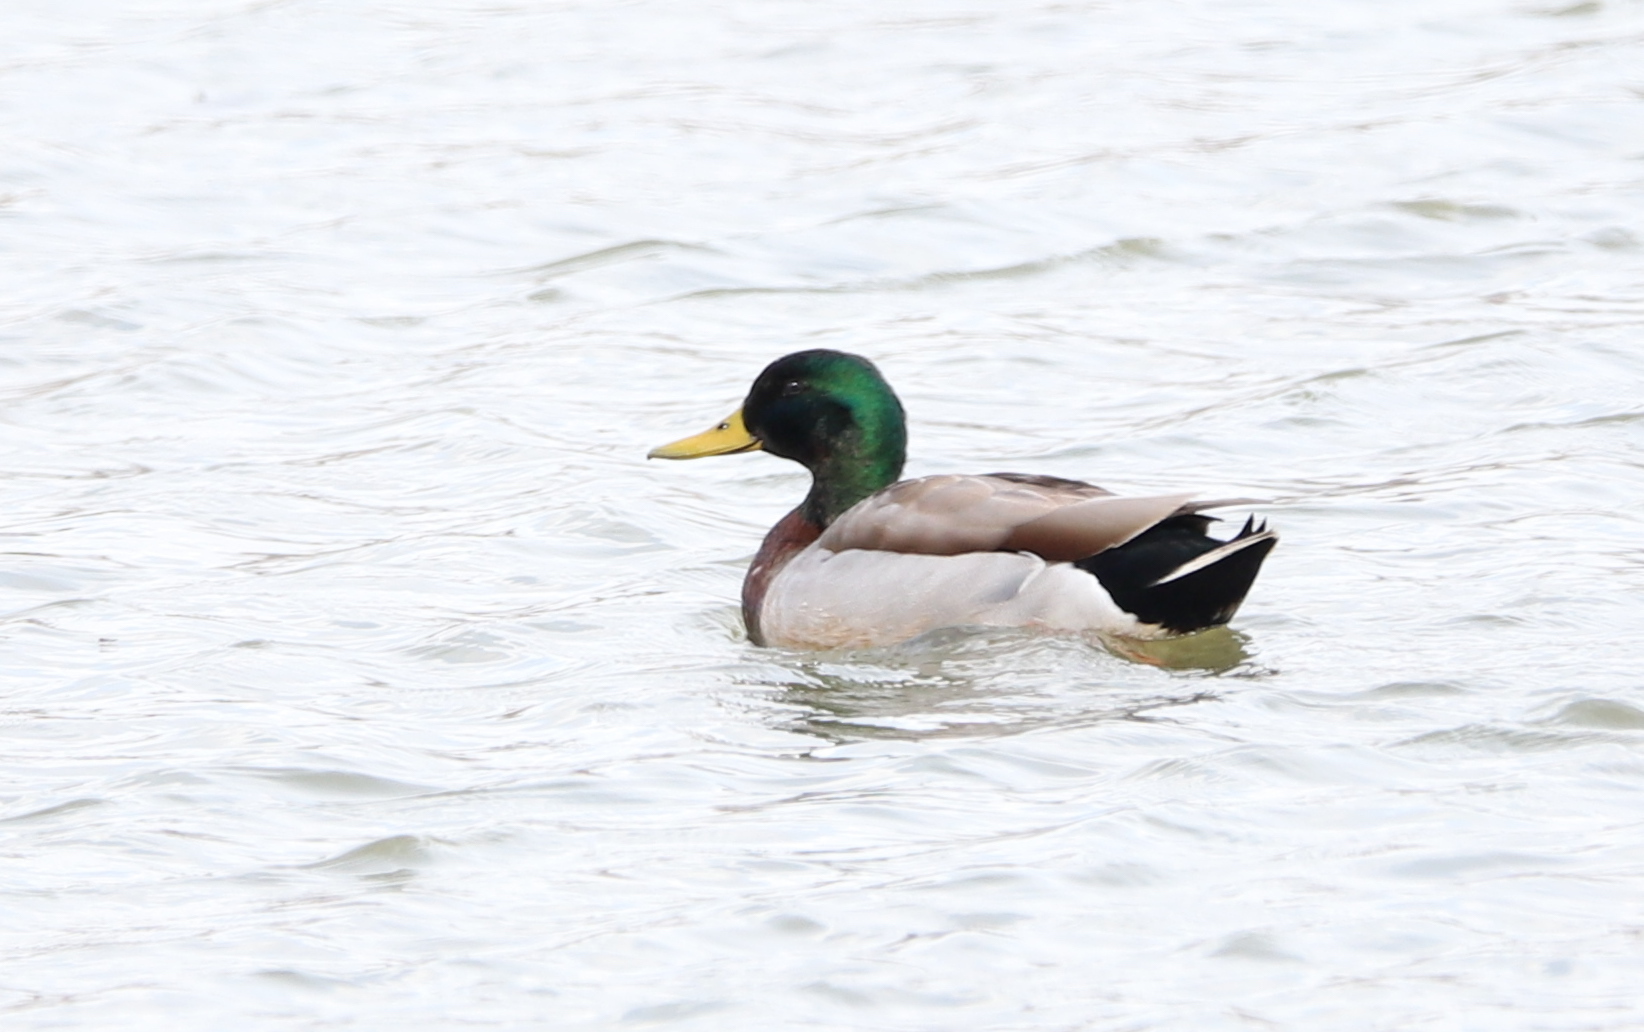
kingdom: Animalia
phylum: Chordata
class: Aves
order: Anseriformes
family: Anatidae
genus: Anas
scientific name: Anas platyrhynchos
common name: Mallard
